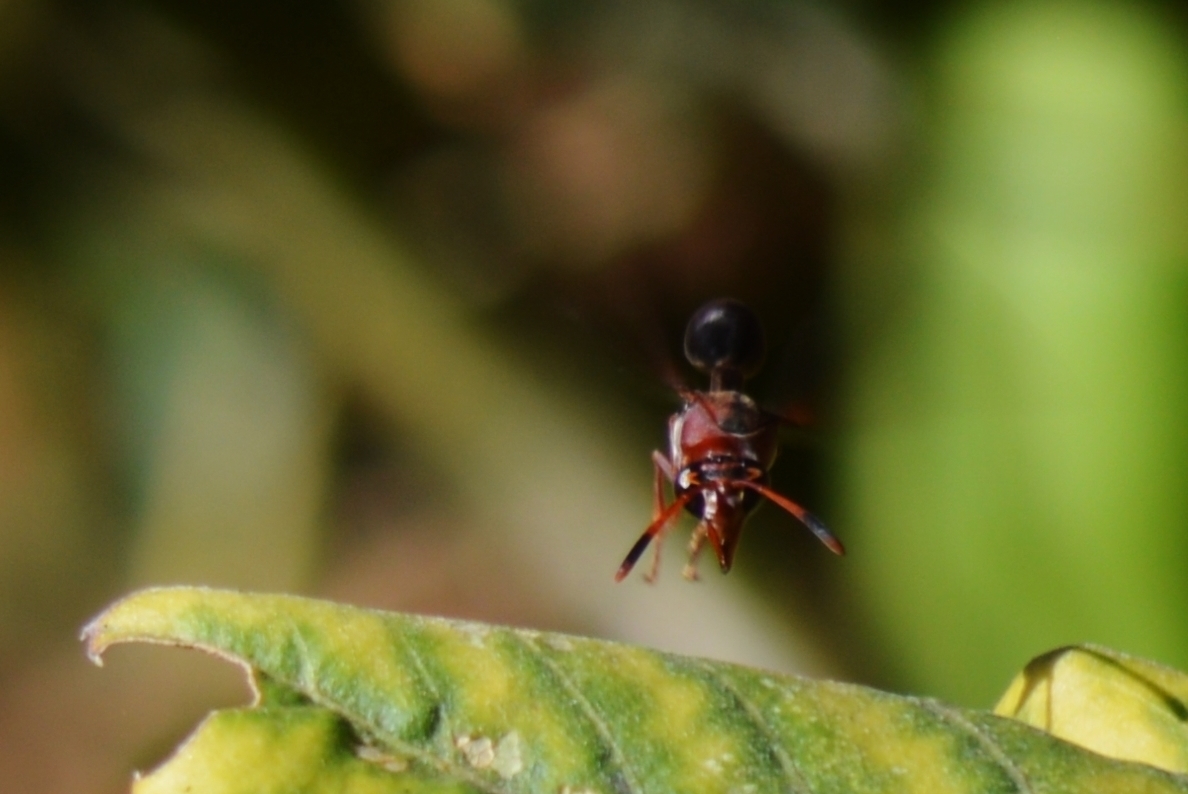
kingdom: Animalia
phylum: Arthropoda
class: Insecta
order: Hymenoptera
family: Eumenidae
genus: Zeta
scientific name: Zeta argillaceum
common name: Potter wasp
